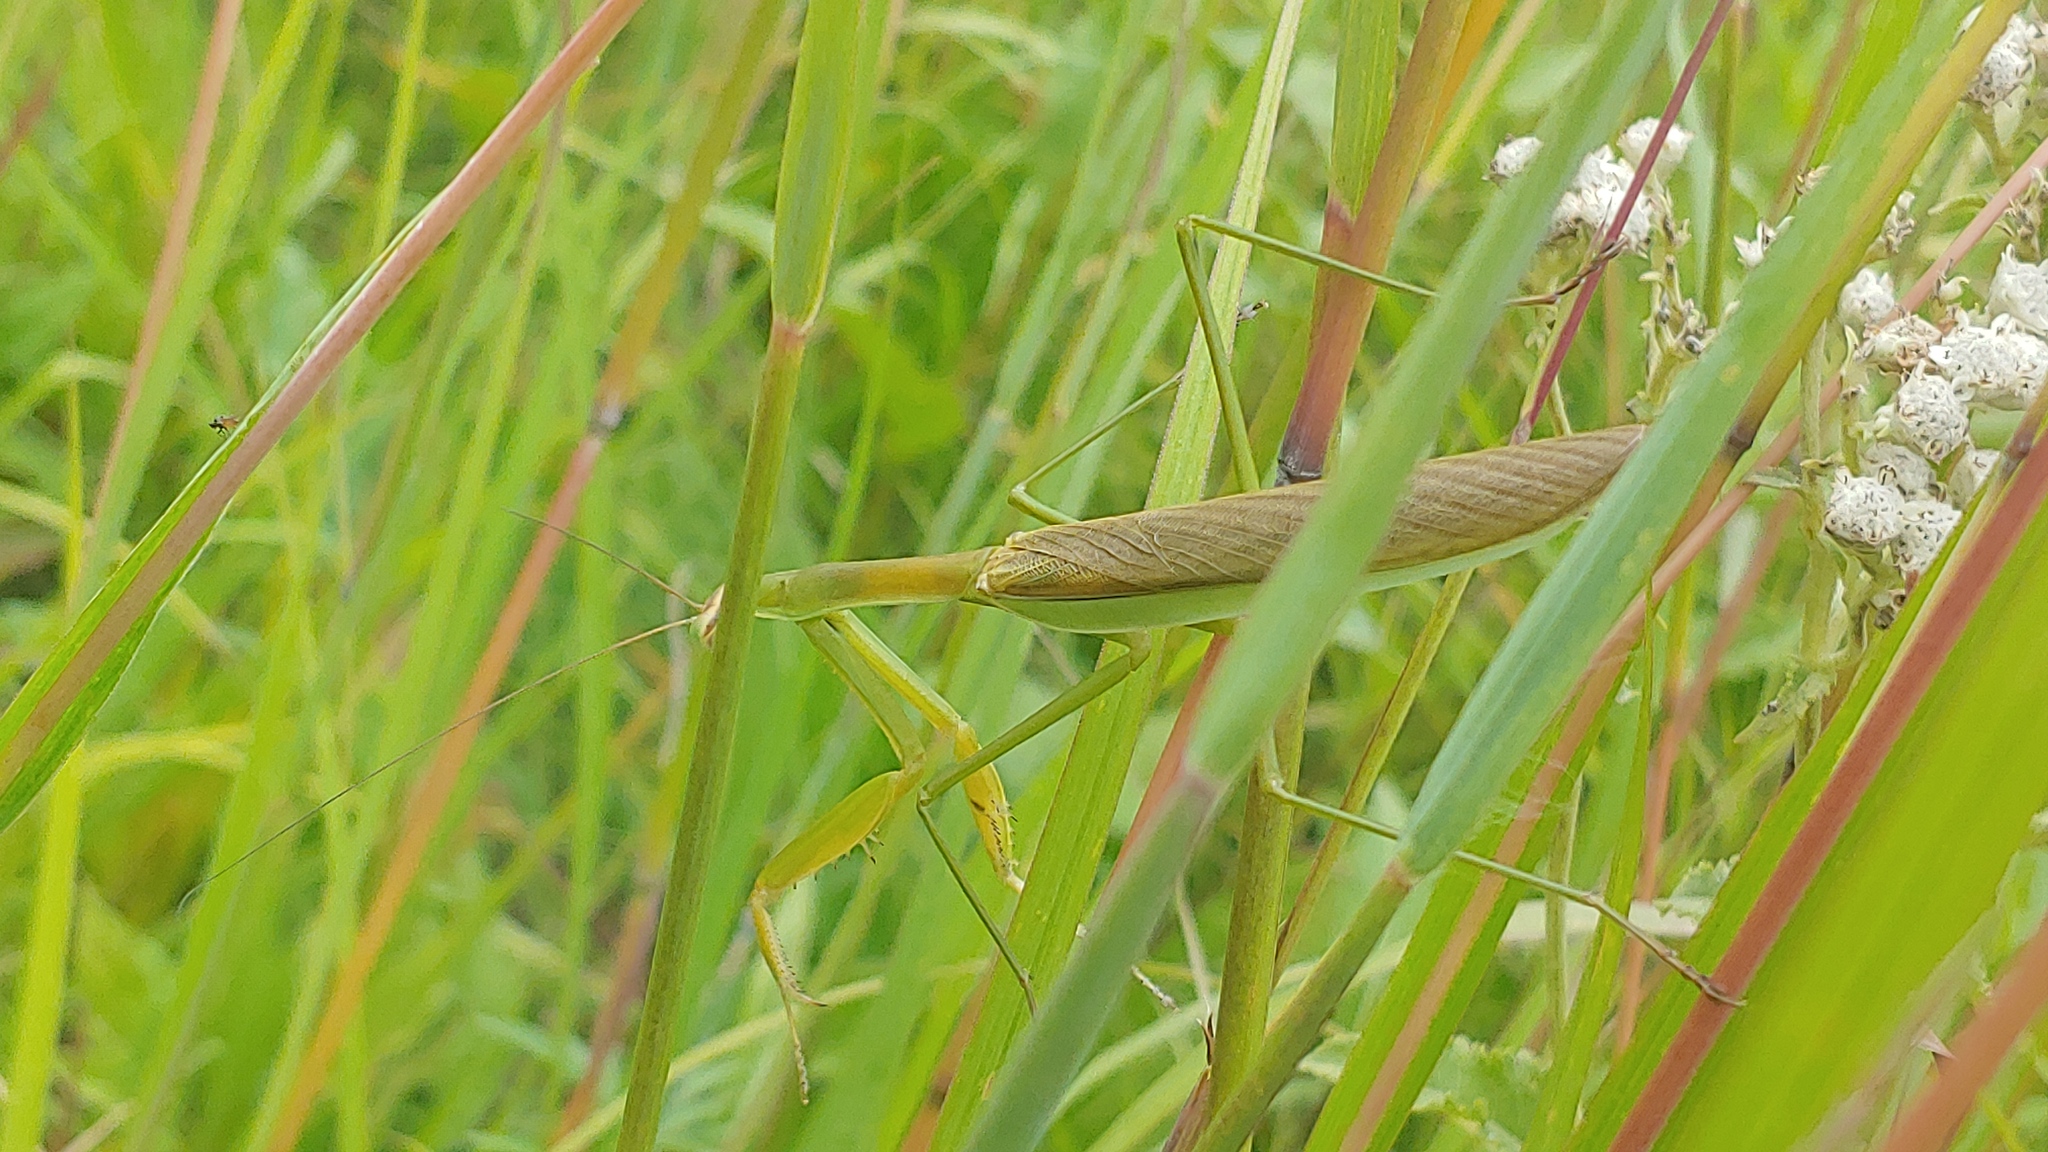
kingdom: Animalia
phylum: Arthropoda
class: Insecta
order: Mantodea
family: Mantidae
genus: Tenodera
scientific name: Tenodera sinensis
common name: Chinese mantis
